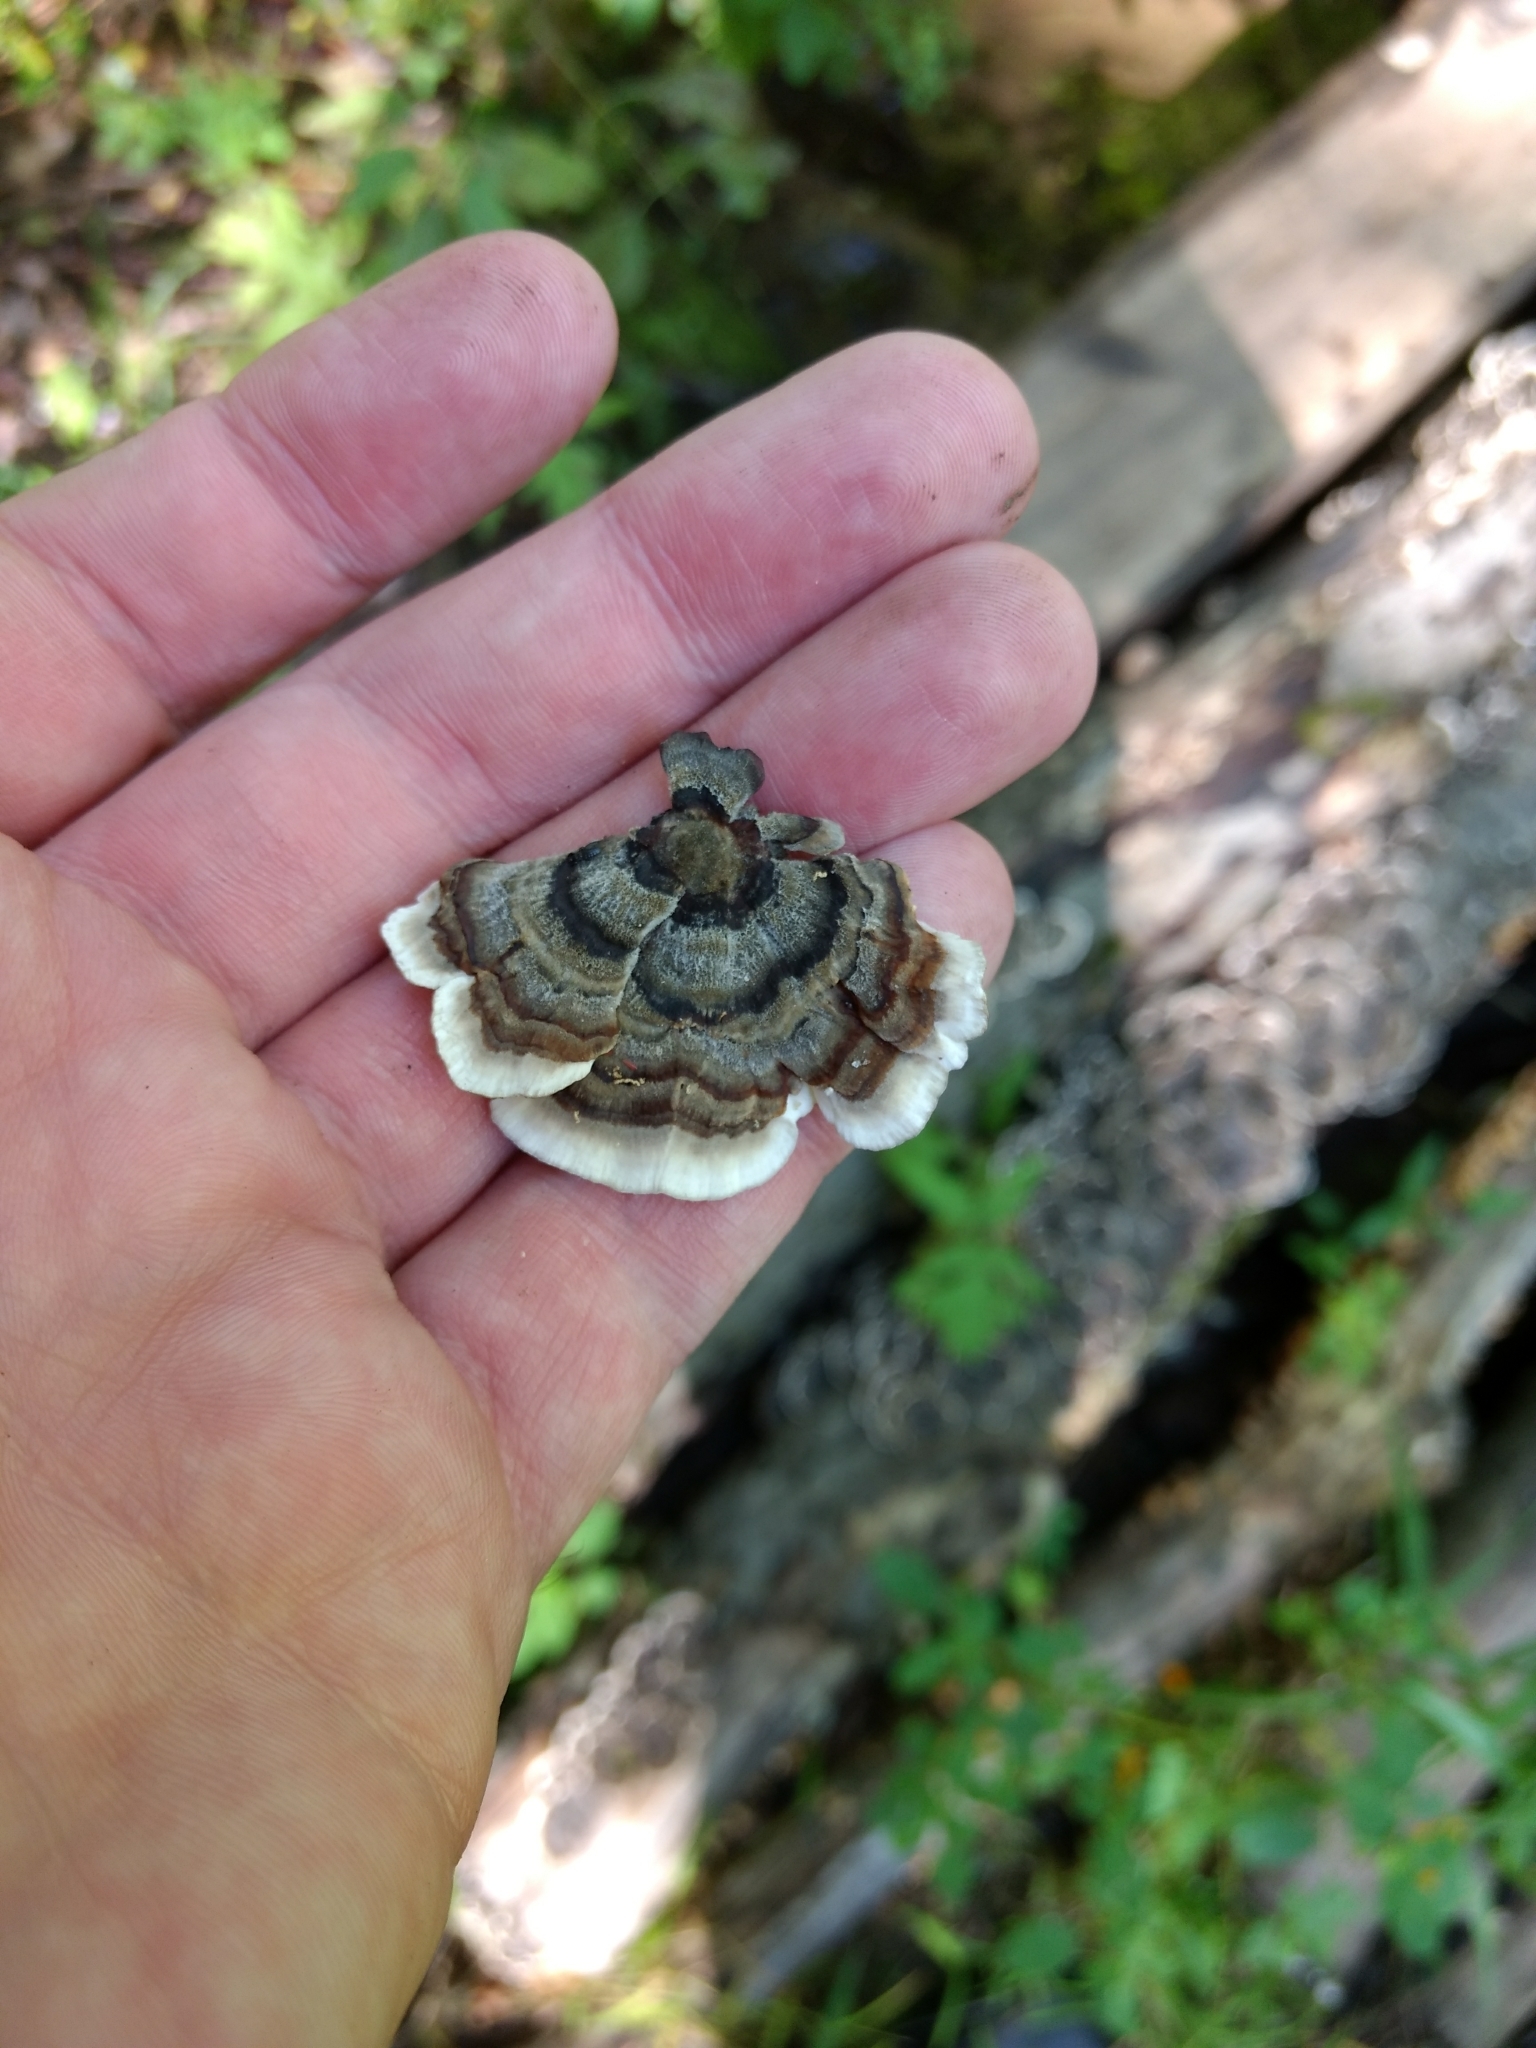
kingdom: Fungi
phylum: Basidiomycota
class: Agaricomycetes
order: Polyporales
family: Polyporaceae
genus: Trametes
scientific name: Trametes versicolor
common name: Turkeytail
